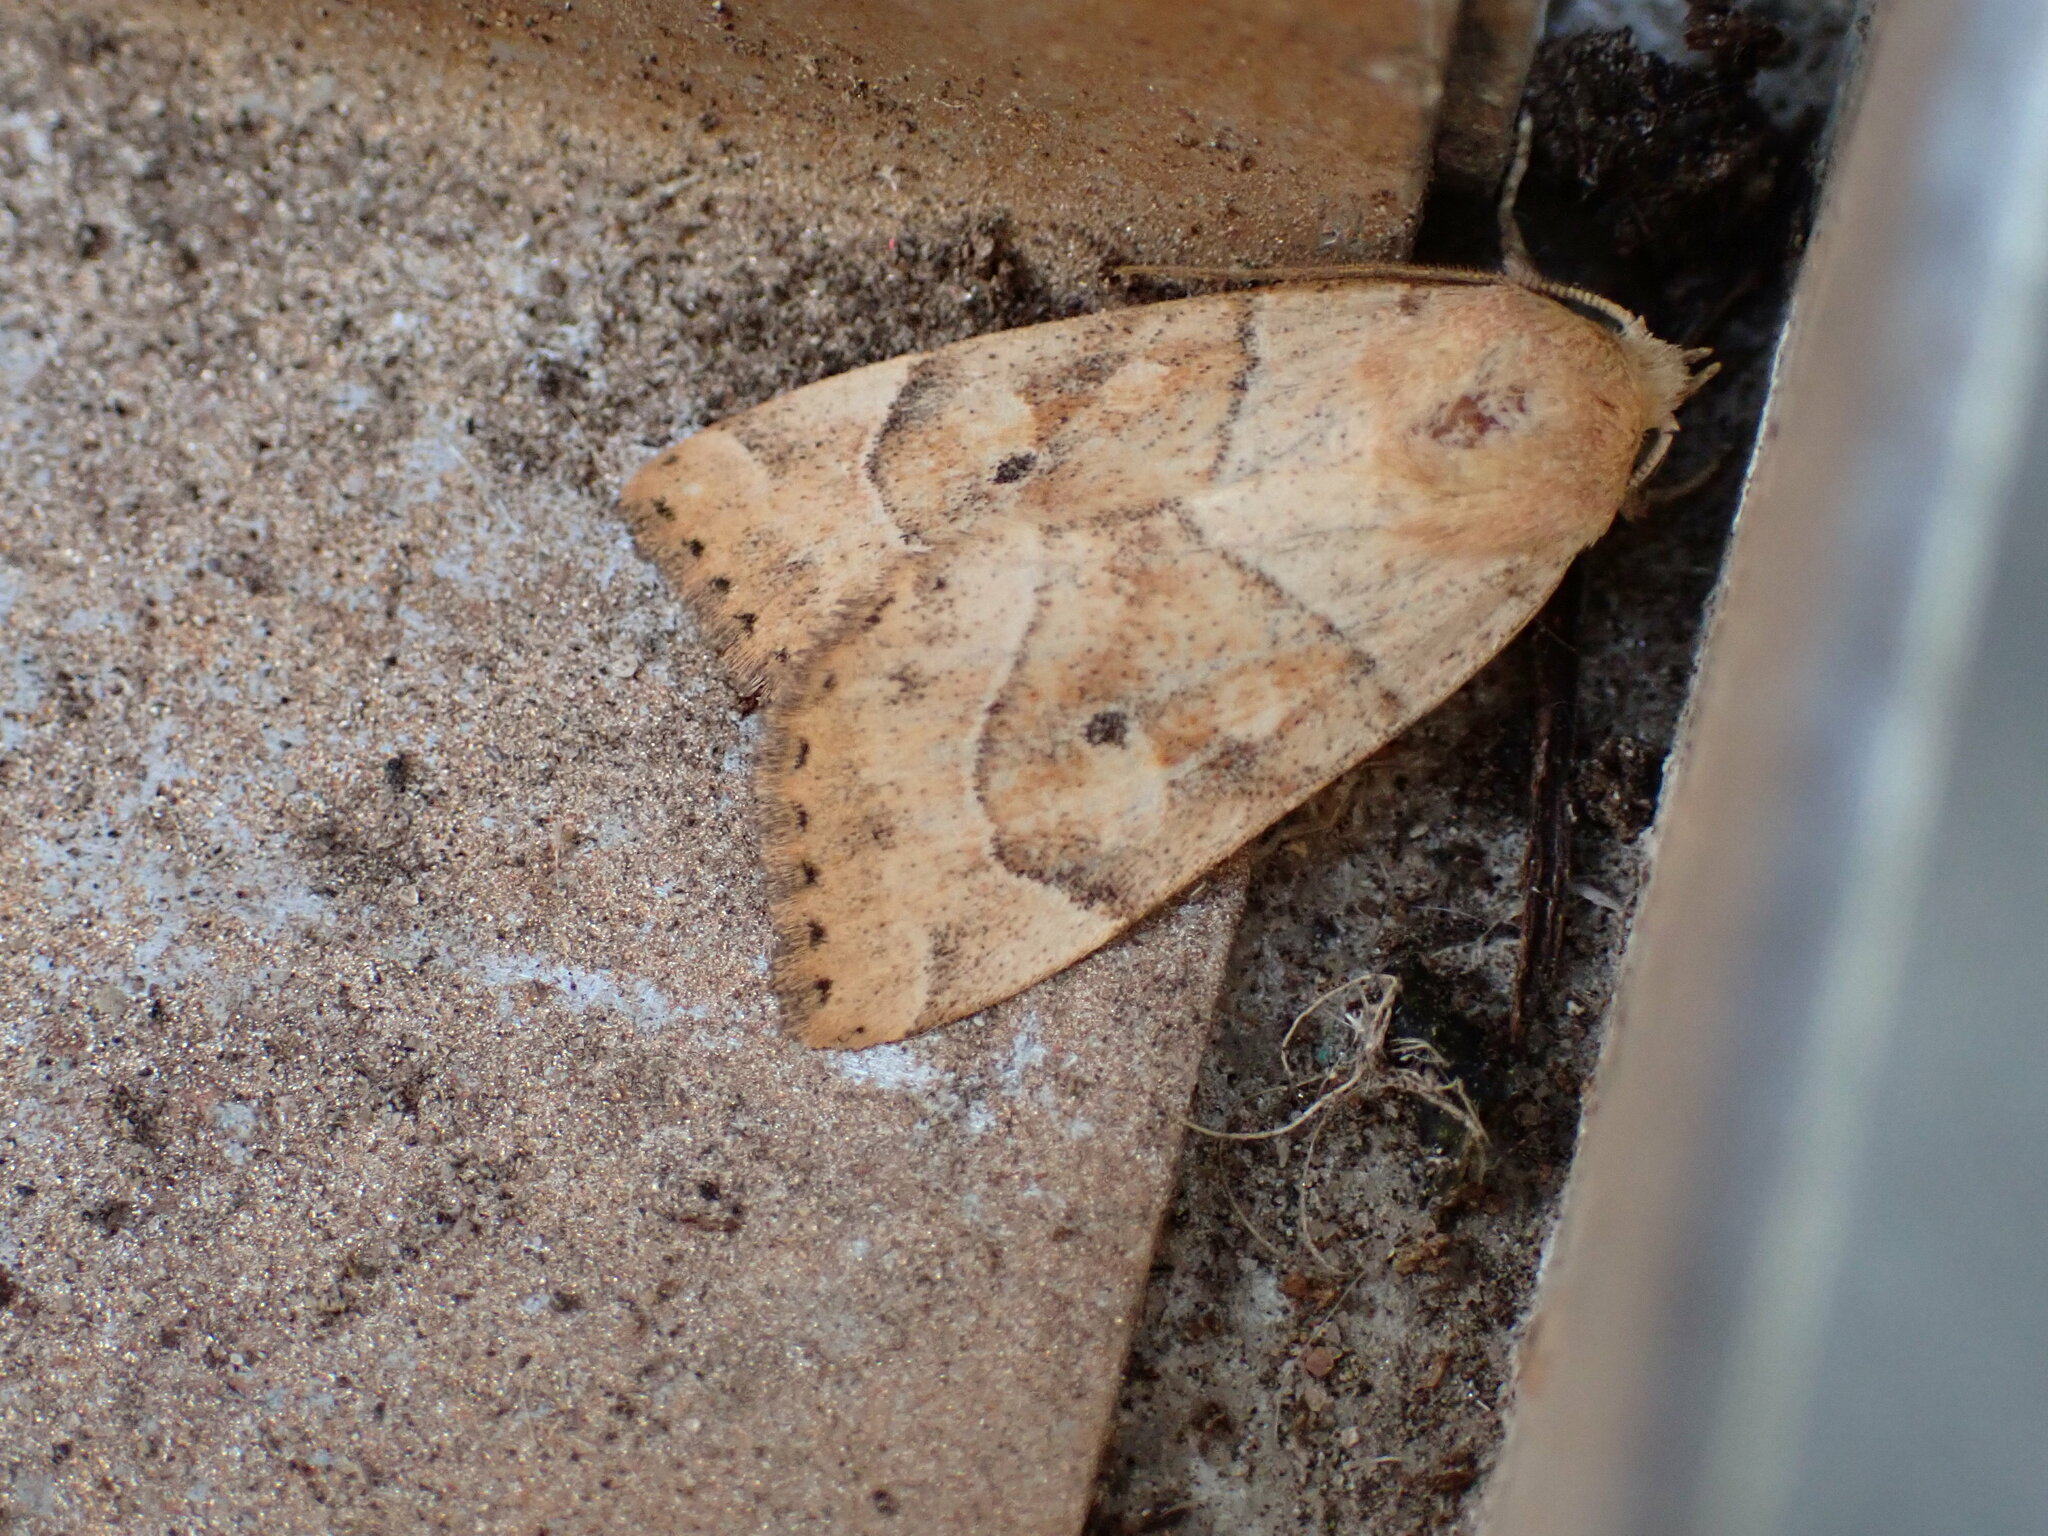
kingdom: Animalia
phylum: Arthropoda
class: Insecta
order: Lepidoptera
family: Noctuidae
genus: Cosmia
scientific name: Cosmia trapezina
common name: Dun-bar
